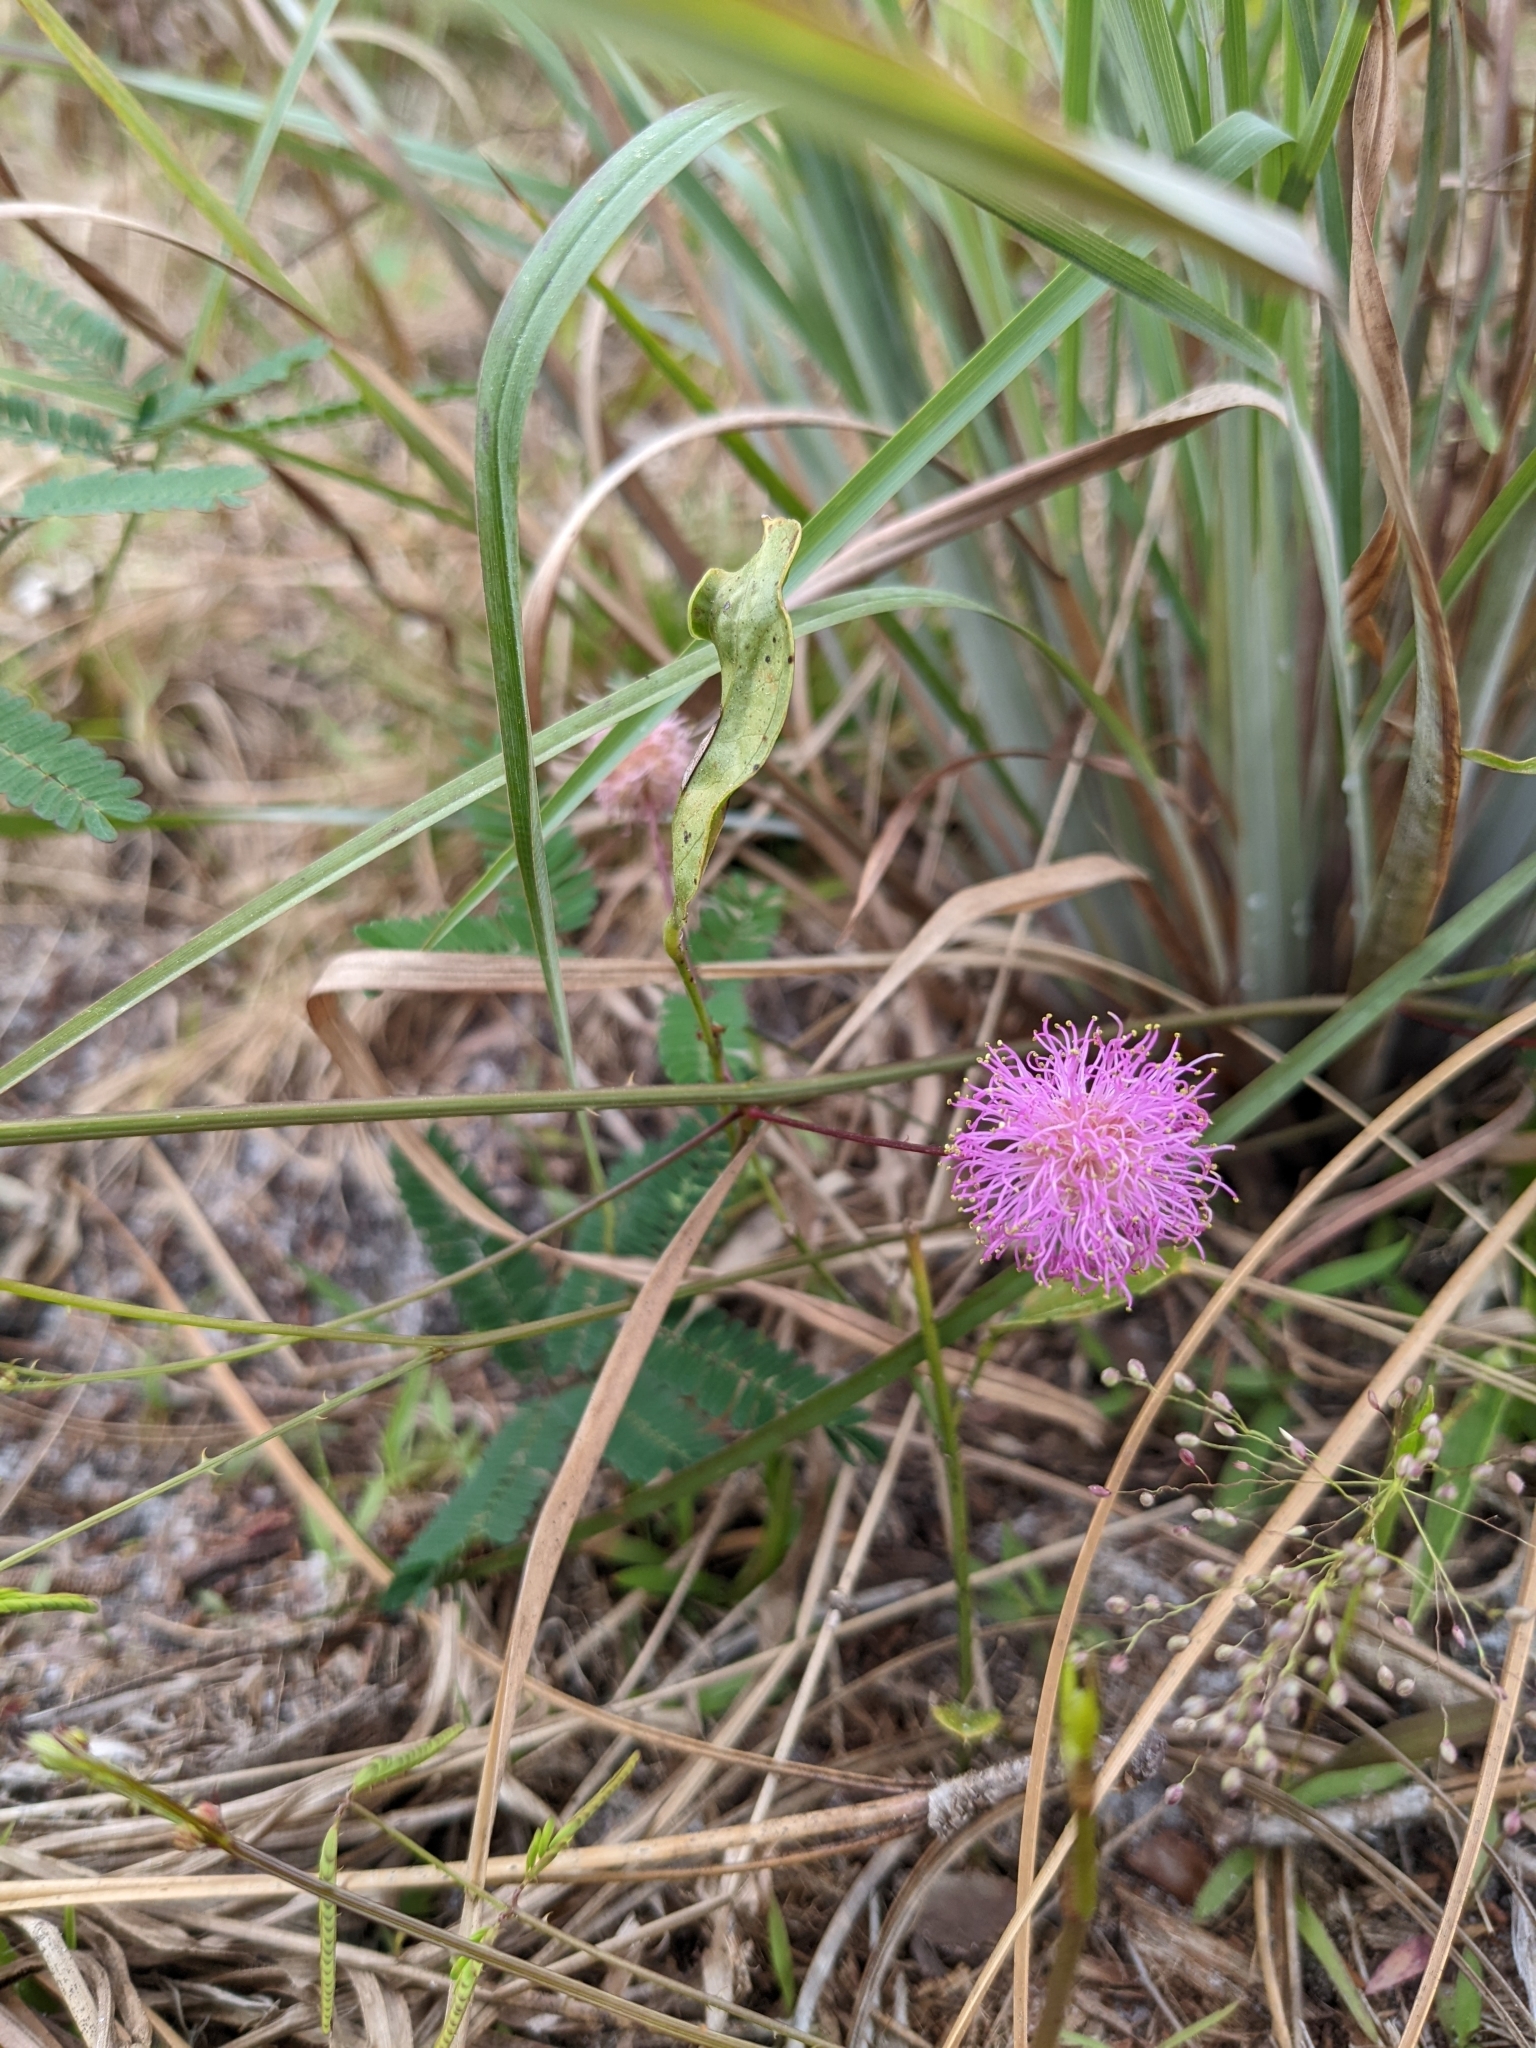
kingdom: Plantae
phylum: Tracheophyta
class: Magnoliopsida
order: Fabales
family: Fabaceae
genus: Mimosa
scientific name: Mimosa floridana
